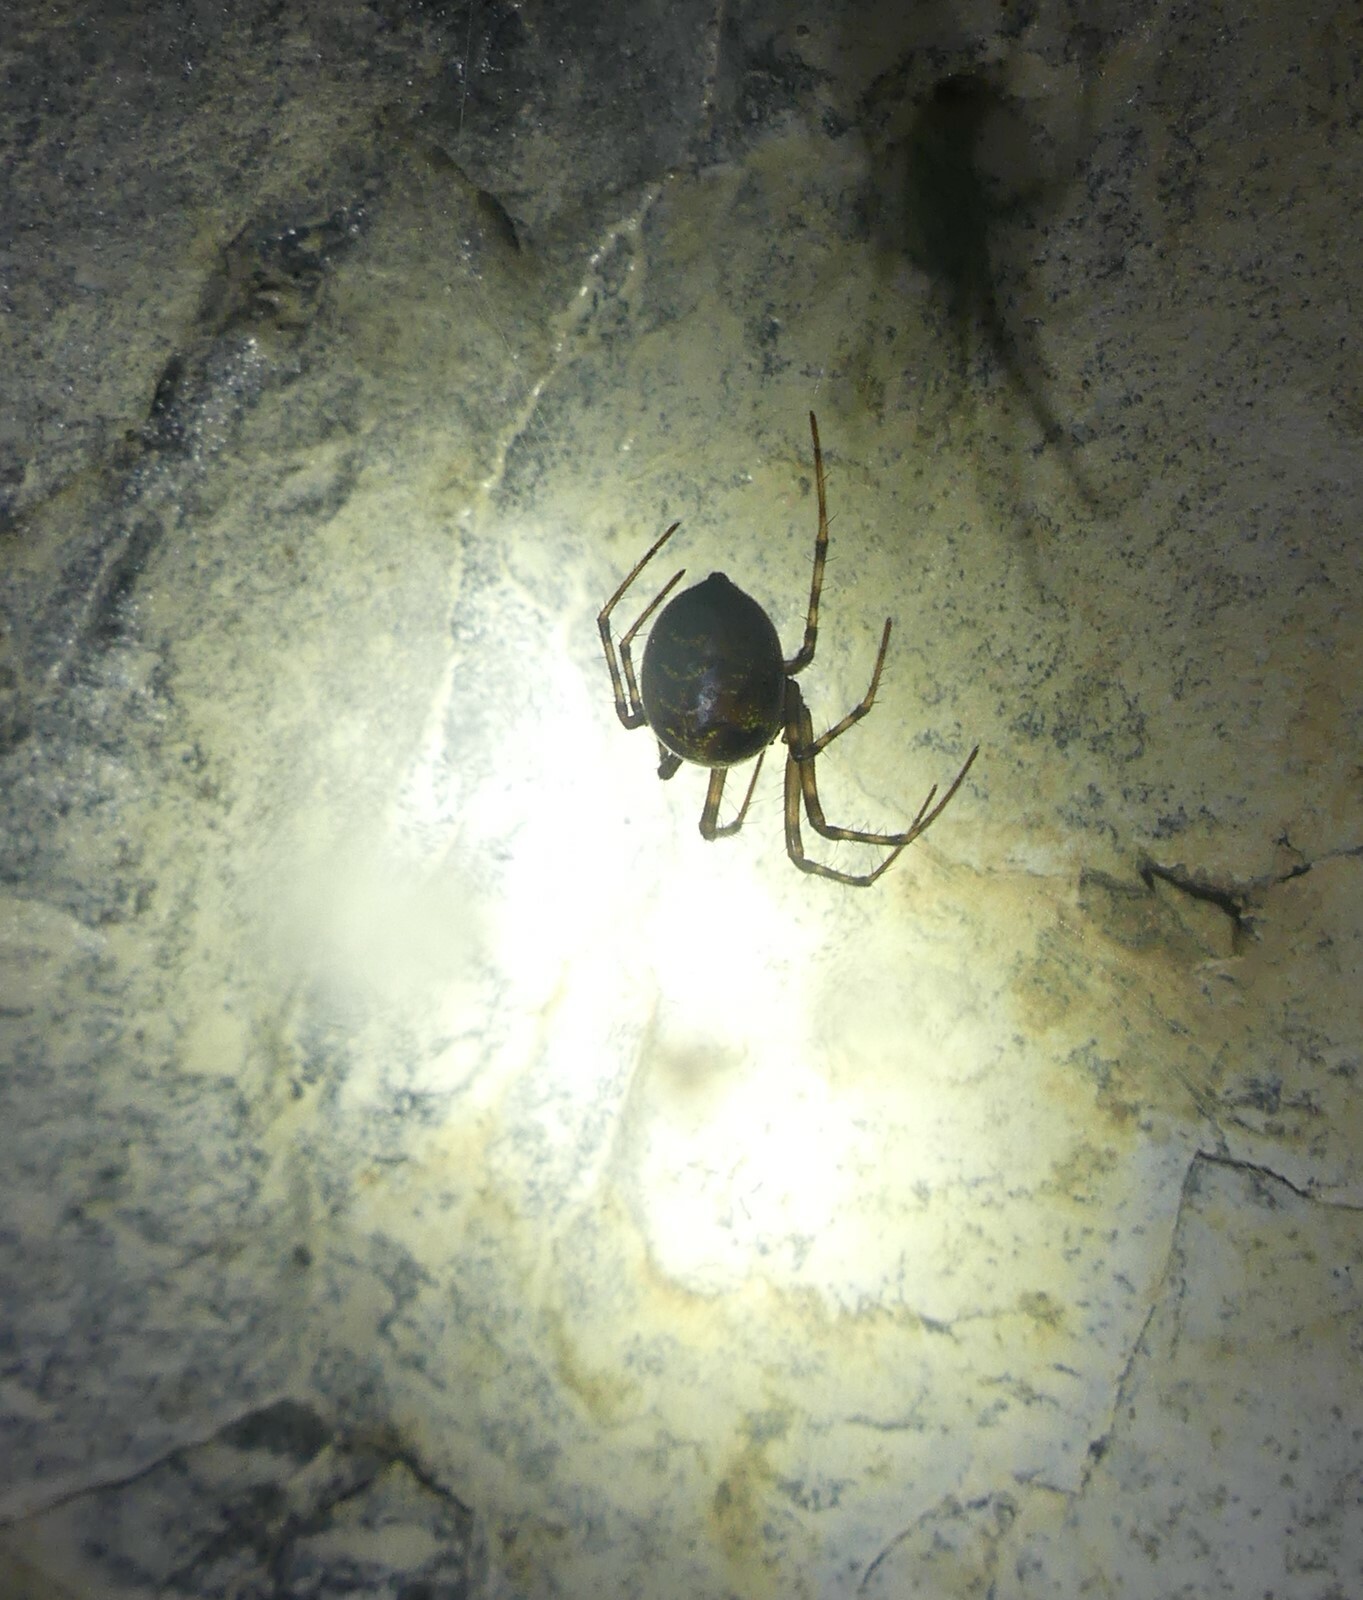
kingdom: Animalia
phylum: Arthropoda
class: Arachnida
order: Araneae
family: Tetragnathidae
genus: Meta
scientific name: Meta menardi
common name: Cave spider
